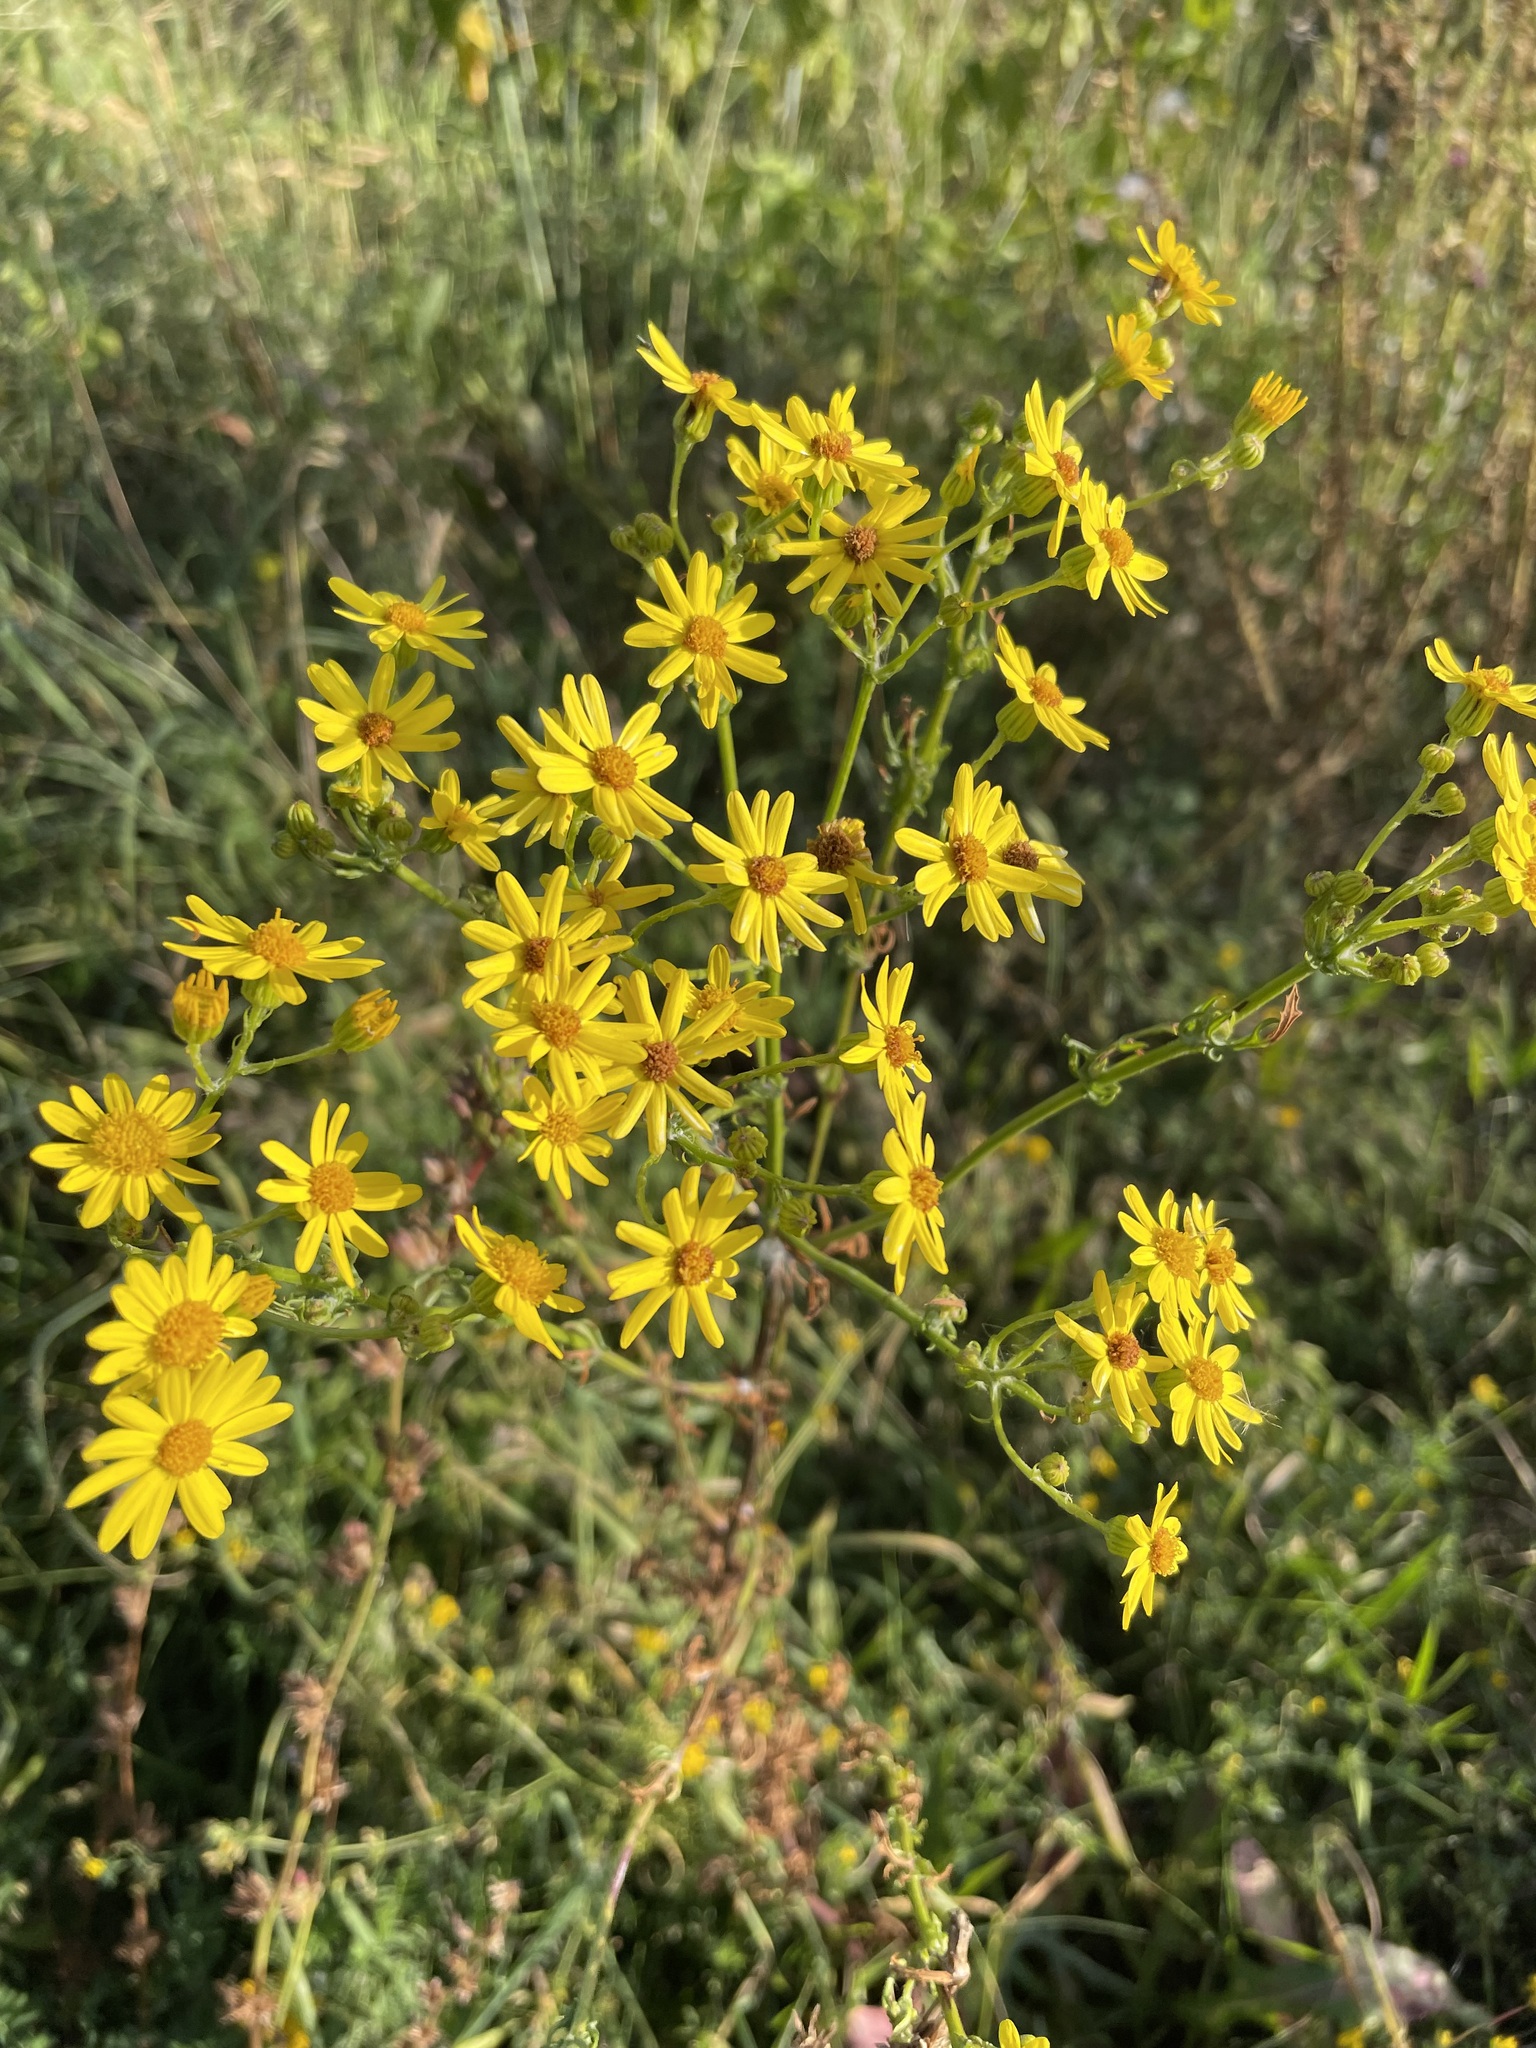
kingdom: Plantae
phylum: Tracheophyta
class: Magnoliopsida
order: Asterales
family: Asteraceae
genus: Jacobaea
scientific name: Jacobaea vulgaris
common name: Stinking willie
